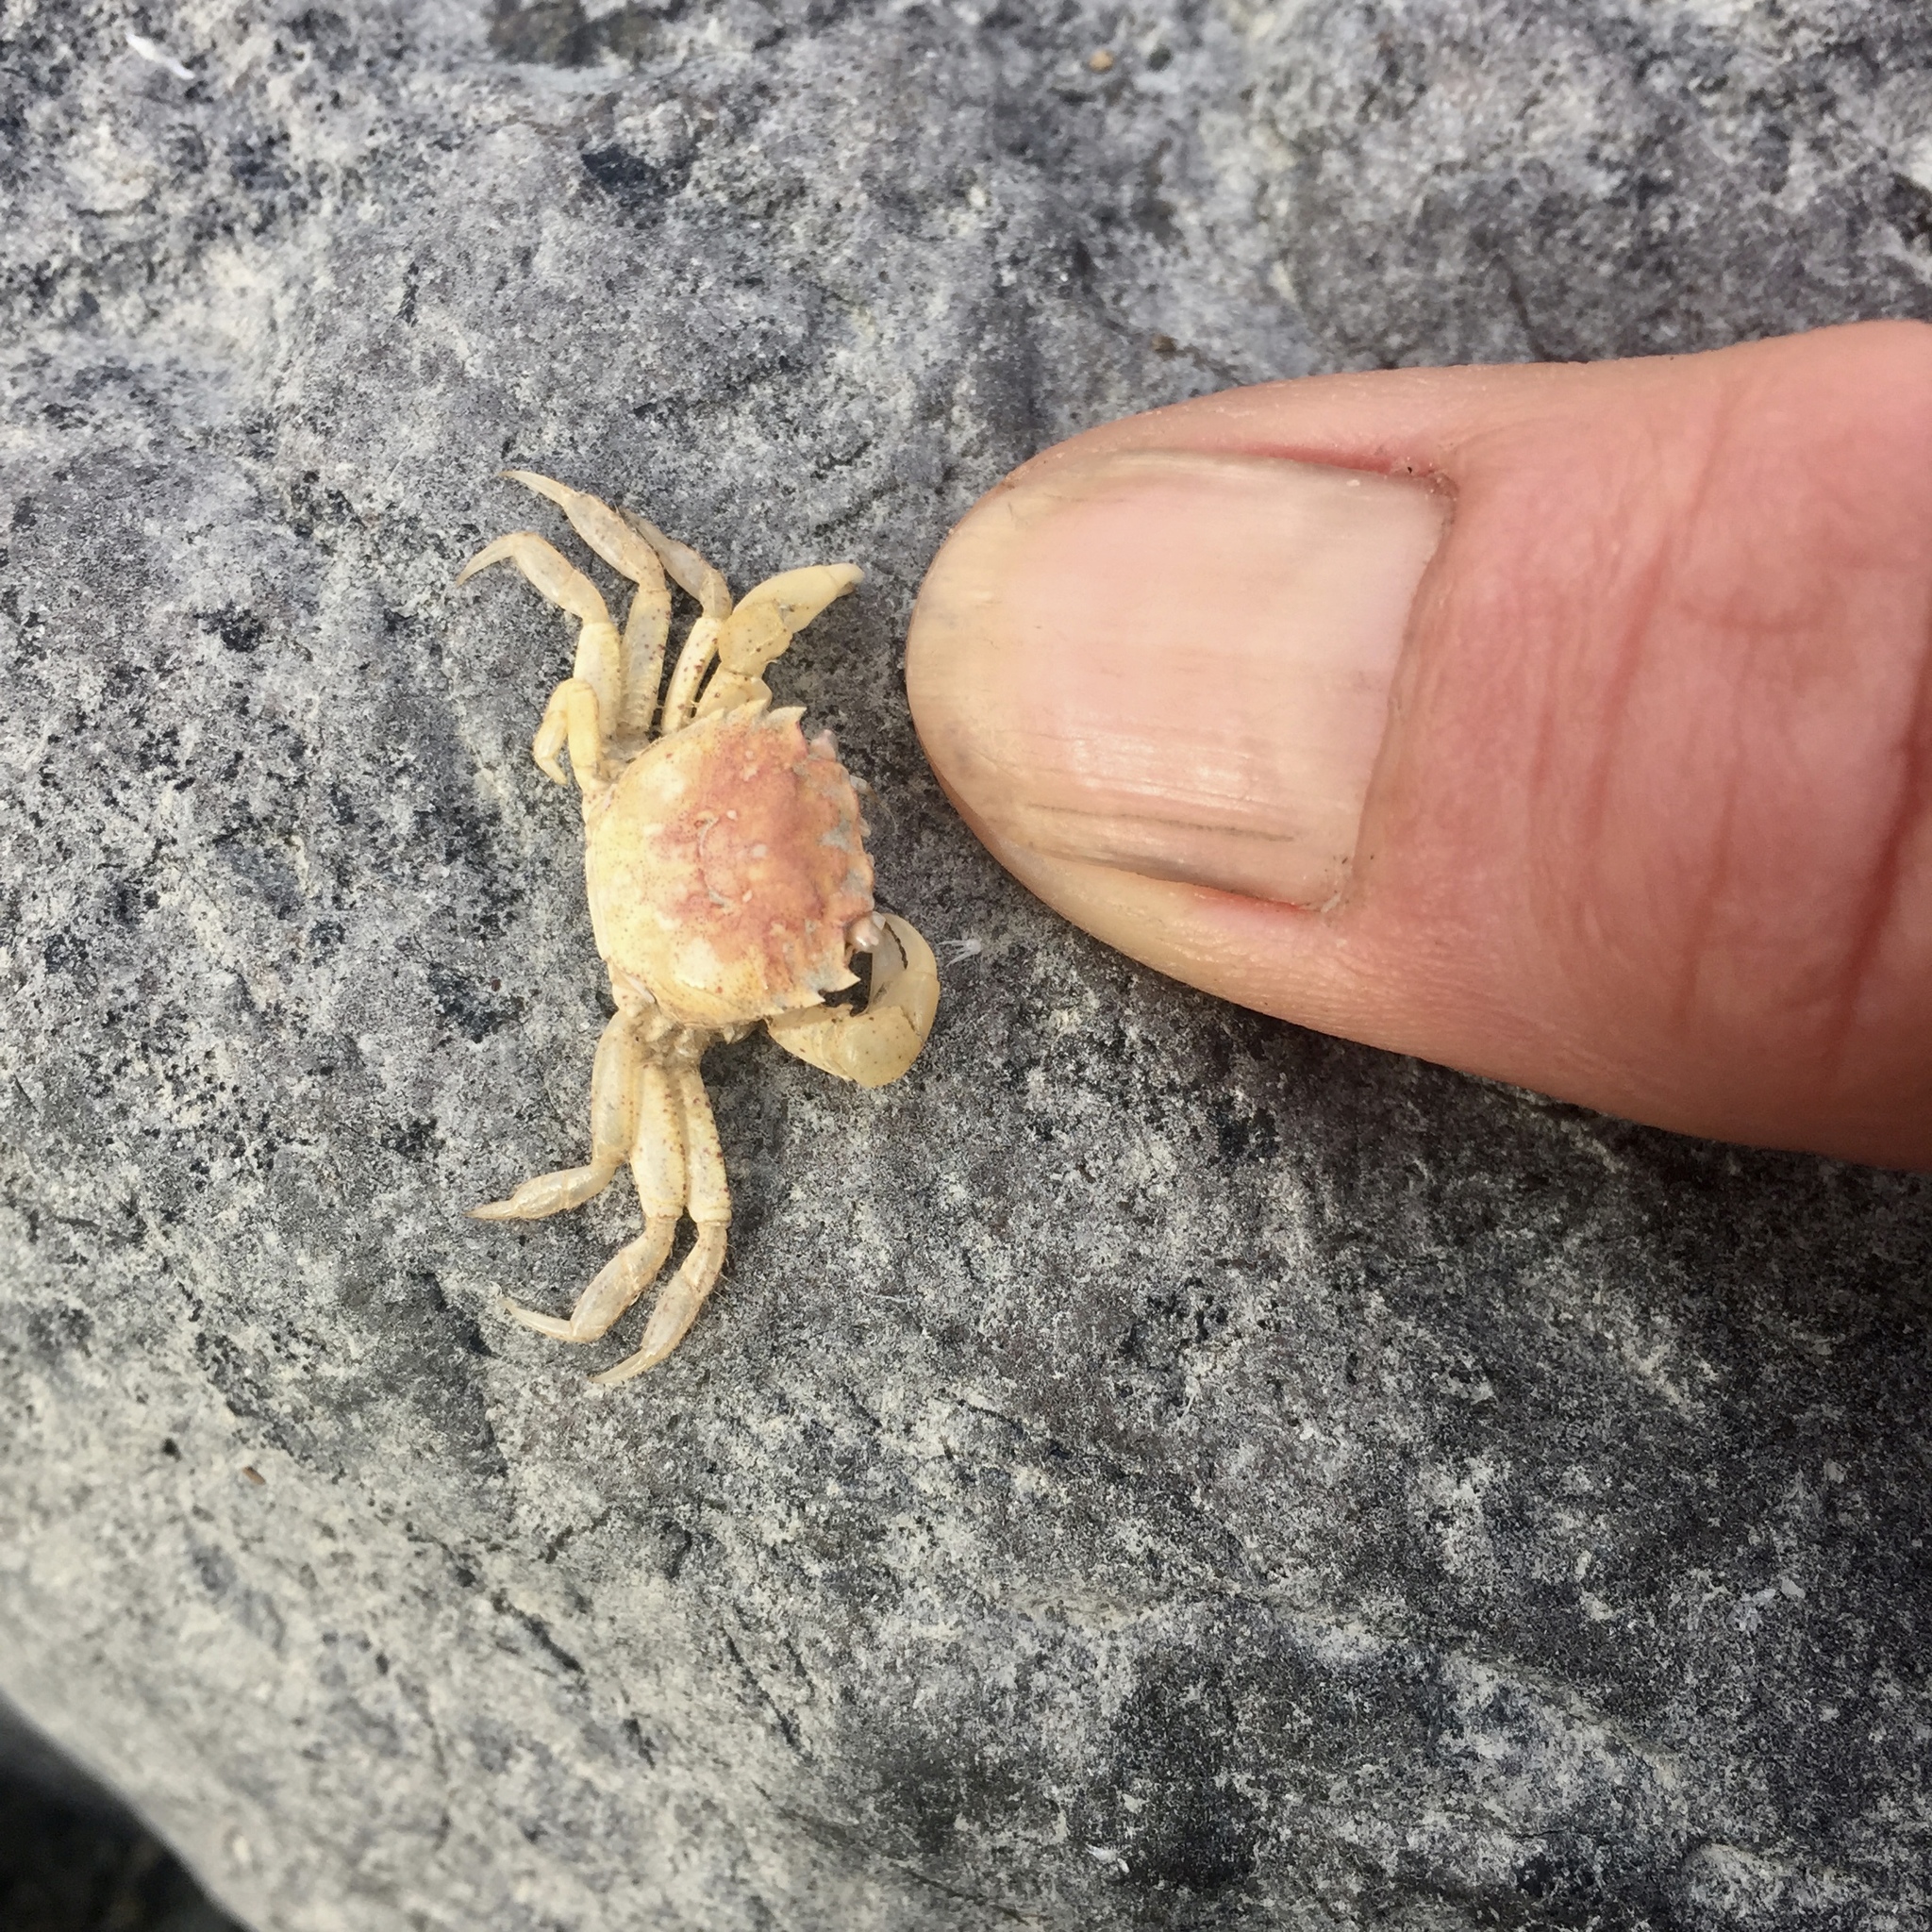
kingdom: Animalia
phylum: Arthropoda
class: Malacostraca
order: Decapoda
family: Varunidae
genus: Hemigrapsus
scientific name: Hemigrapsus oregonensis
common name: Yellow shore crab
